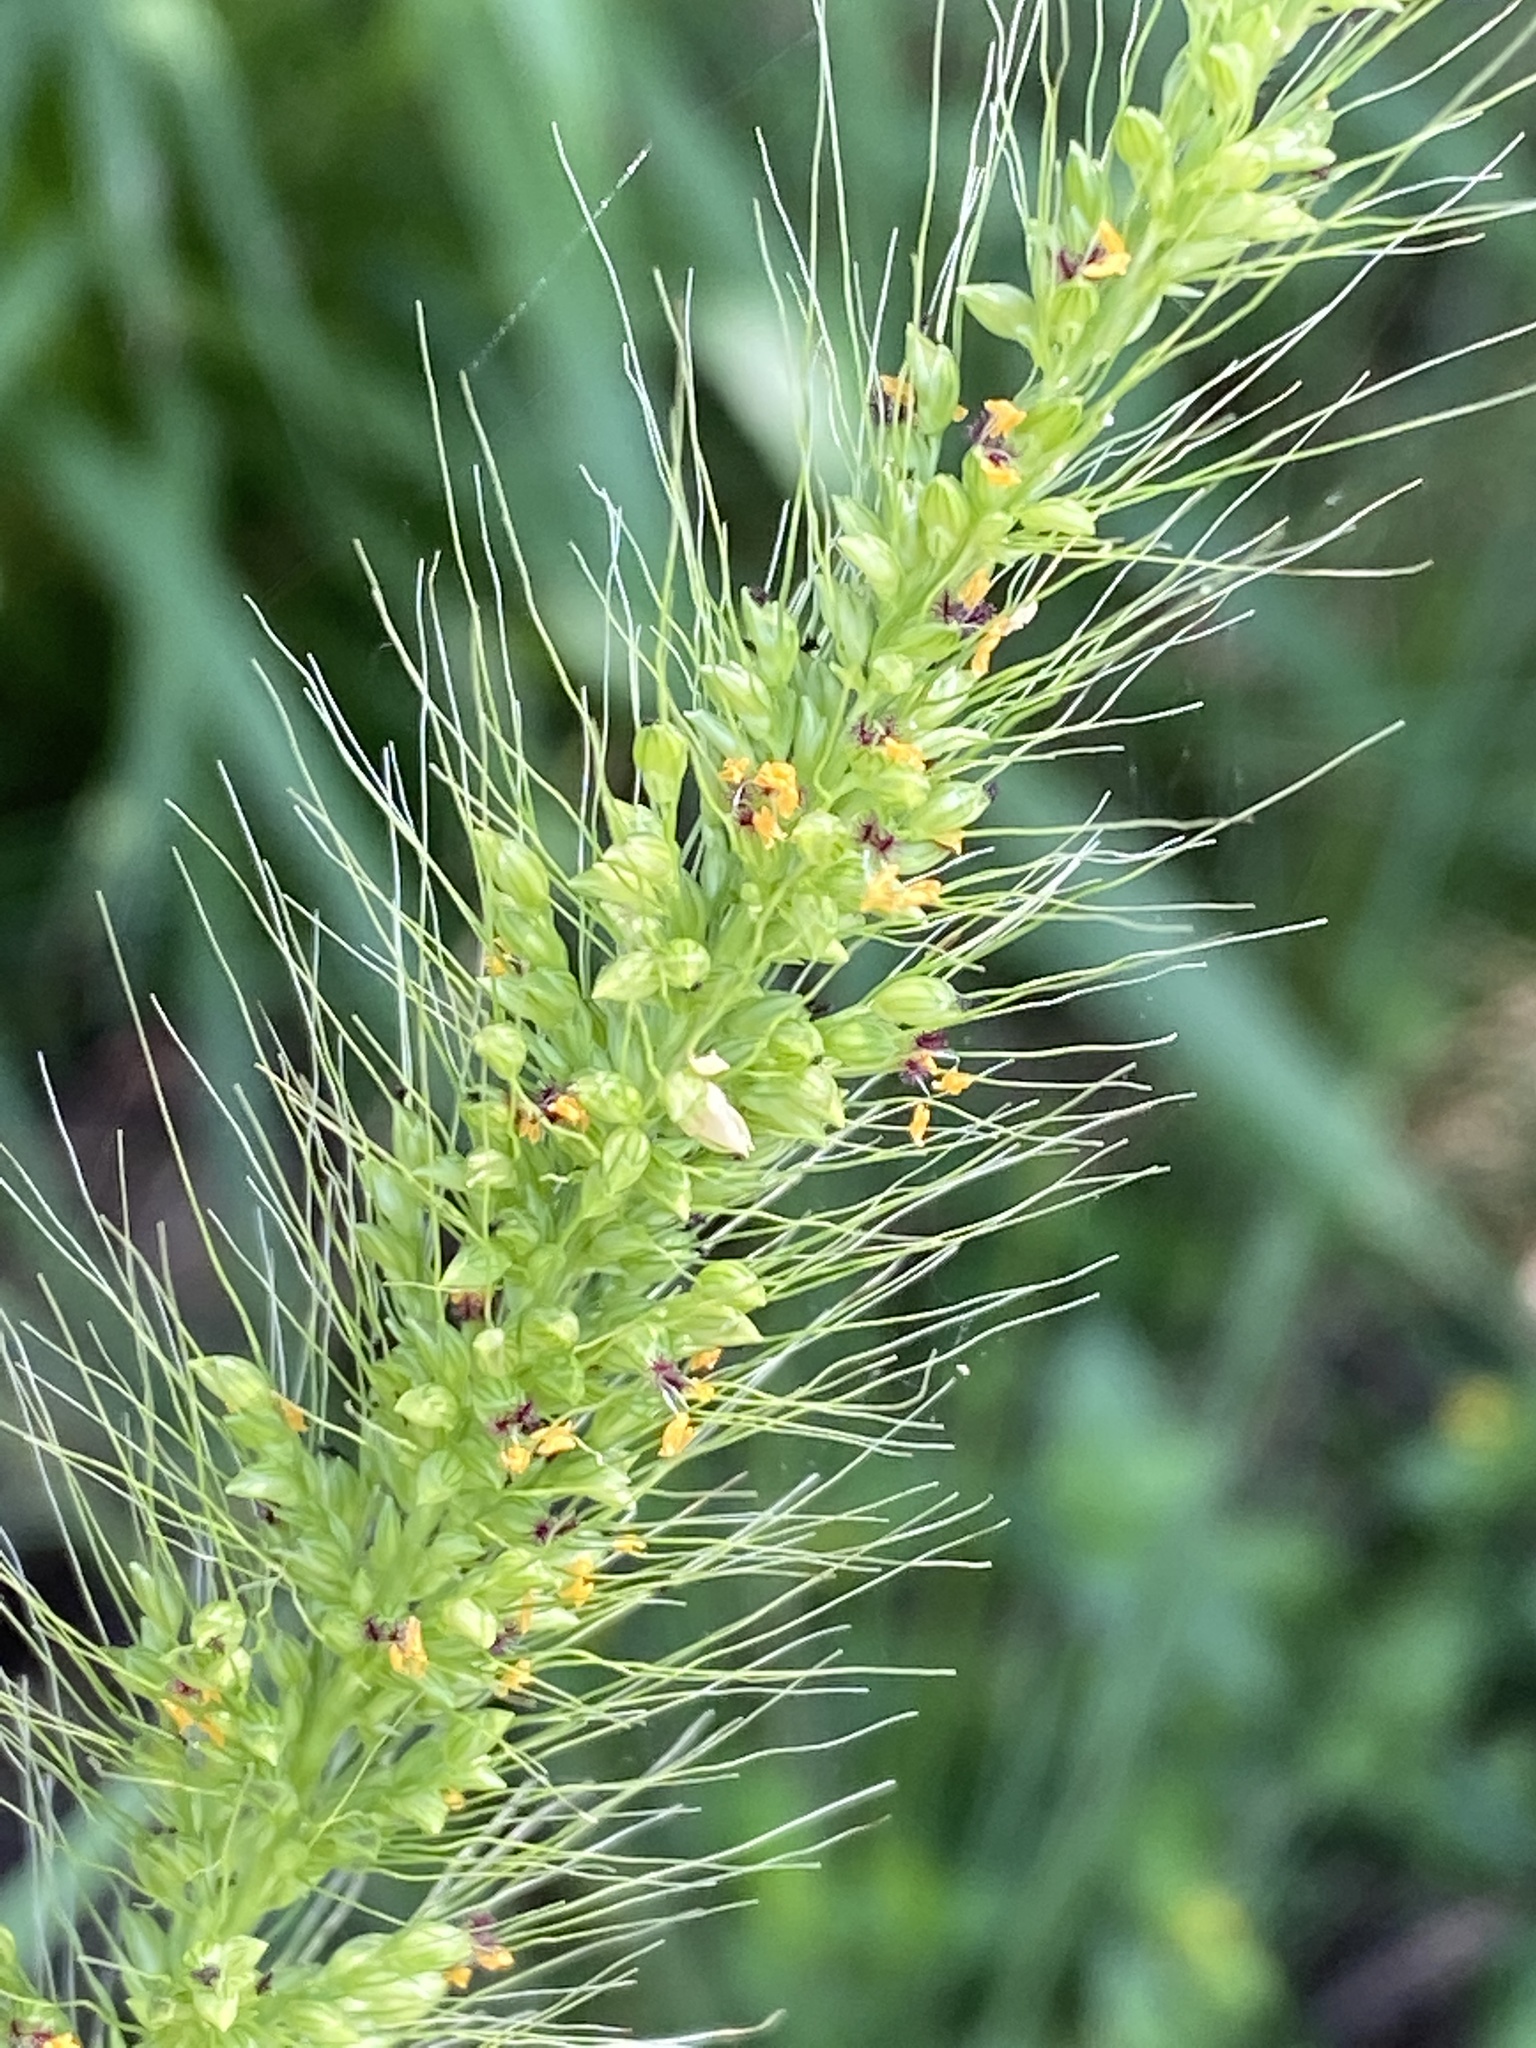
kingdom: Plantae
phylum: Tracheophyta
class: Liliopsida
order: Poales
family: Poaceae
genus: Setaria
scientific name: Setaria leucopila
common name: Plains bristle grass
